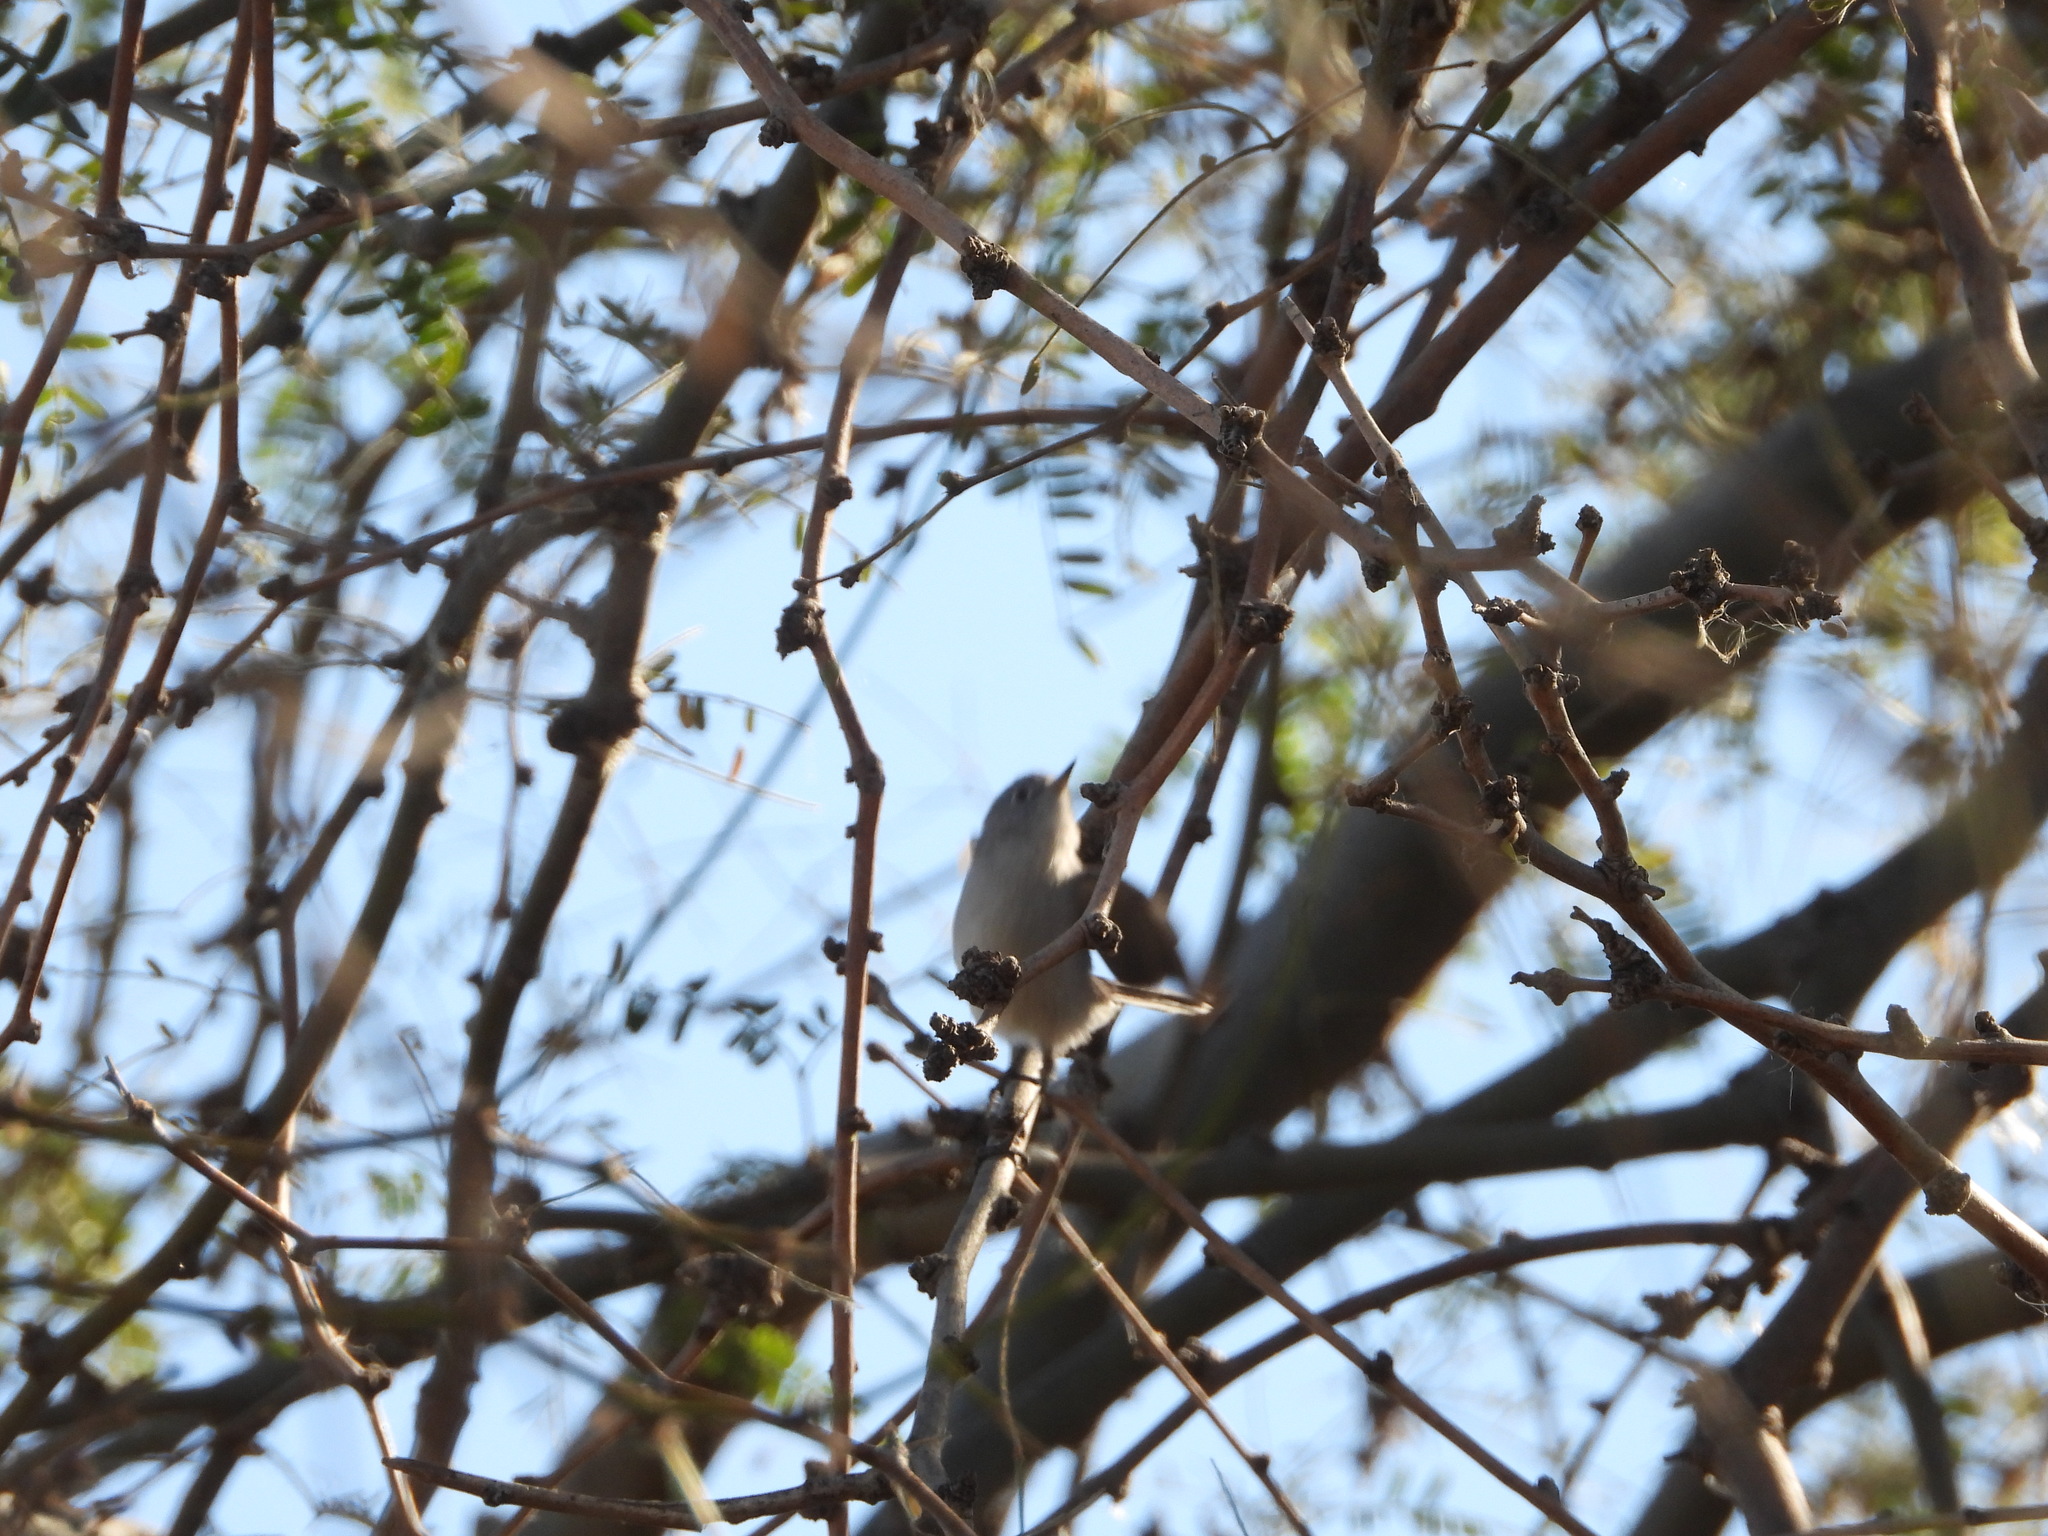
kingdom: Animalia
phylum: Chordata
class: Aves
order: Passeriformes
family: Regulidae
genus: Regulus
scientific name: Regulus calendula
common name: Ruby-crowned kinglet
